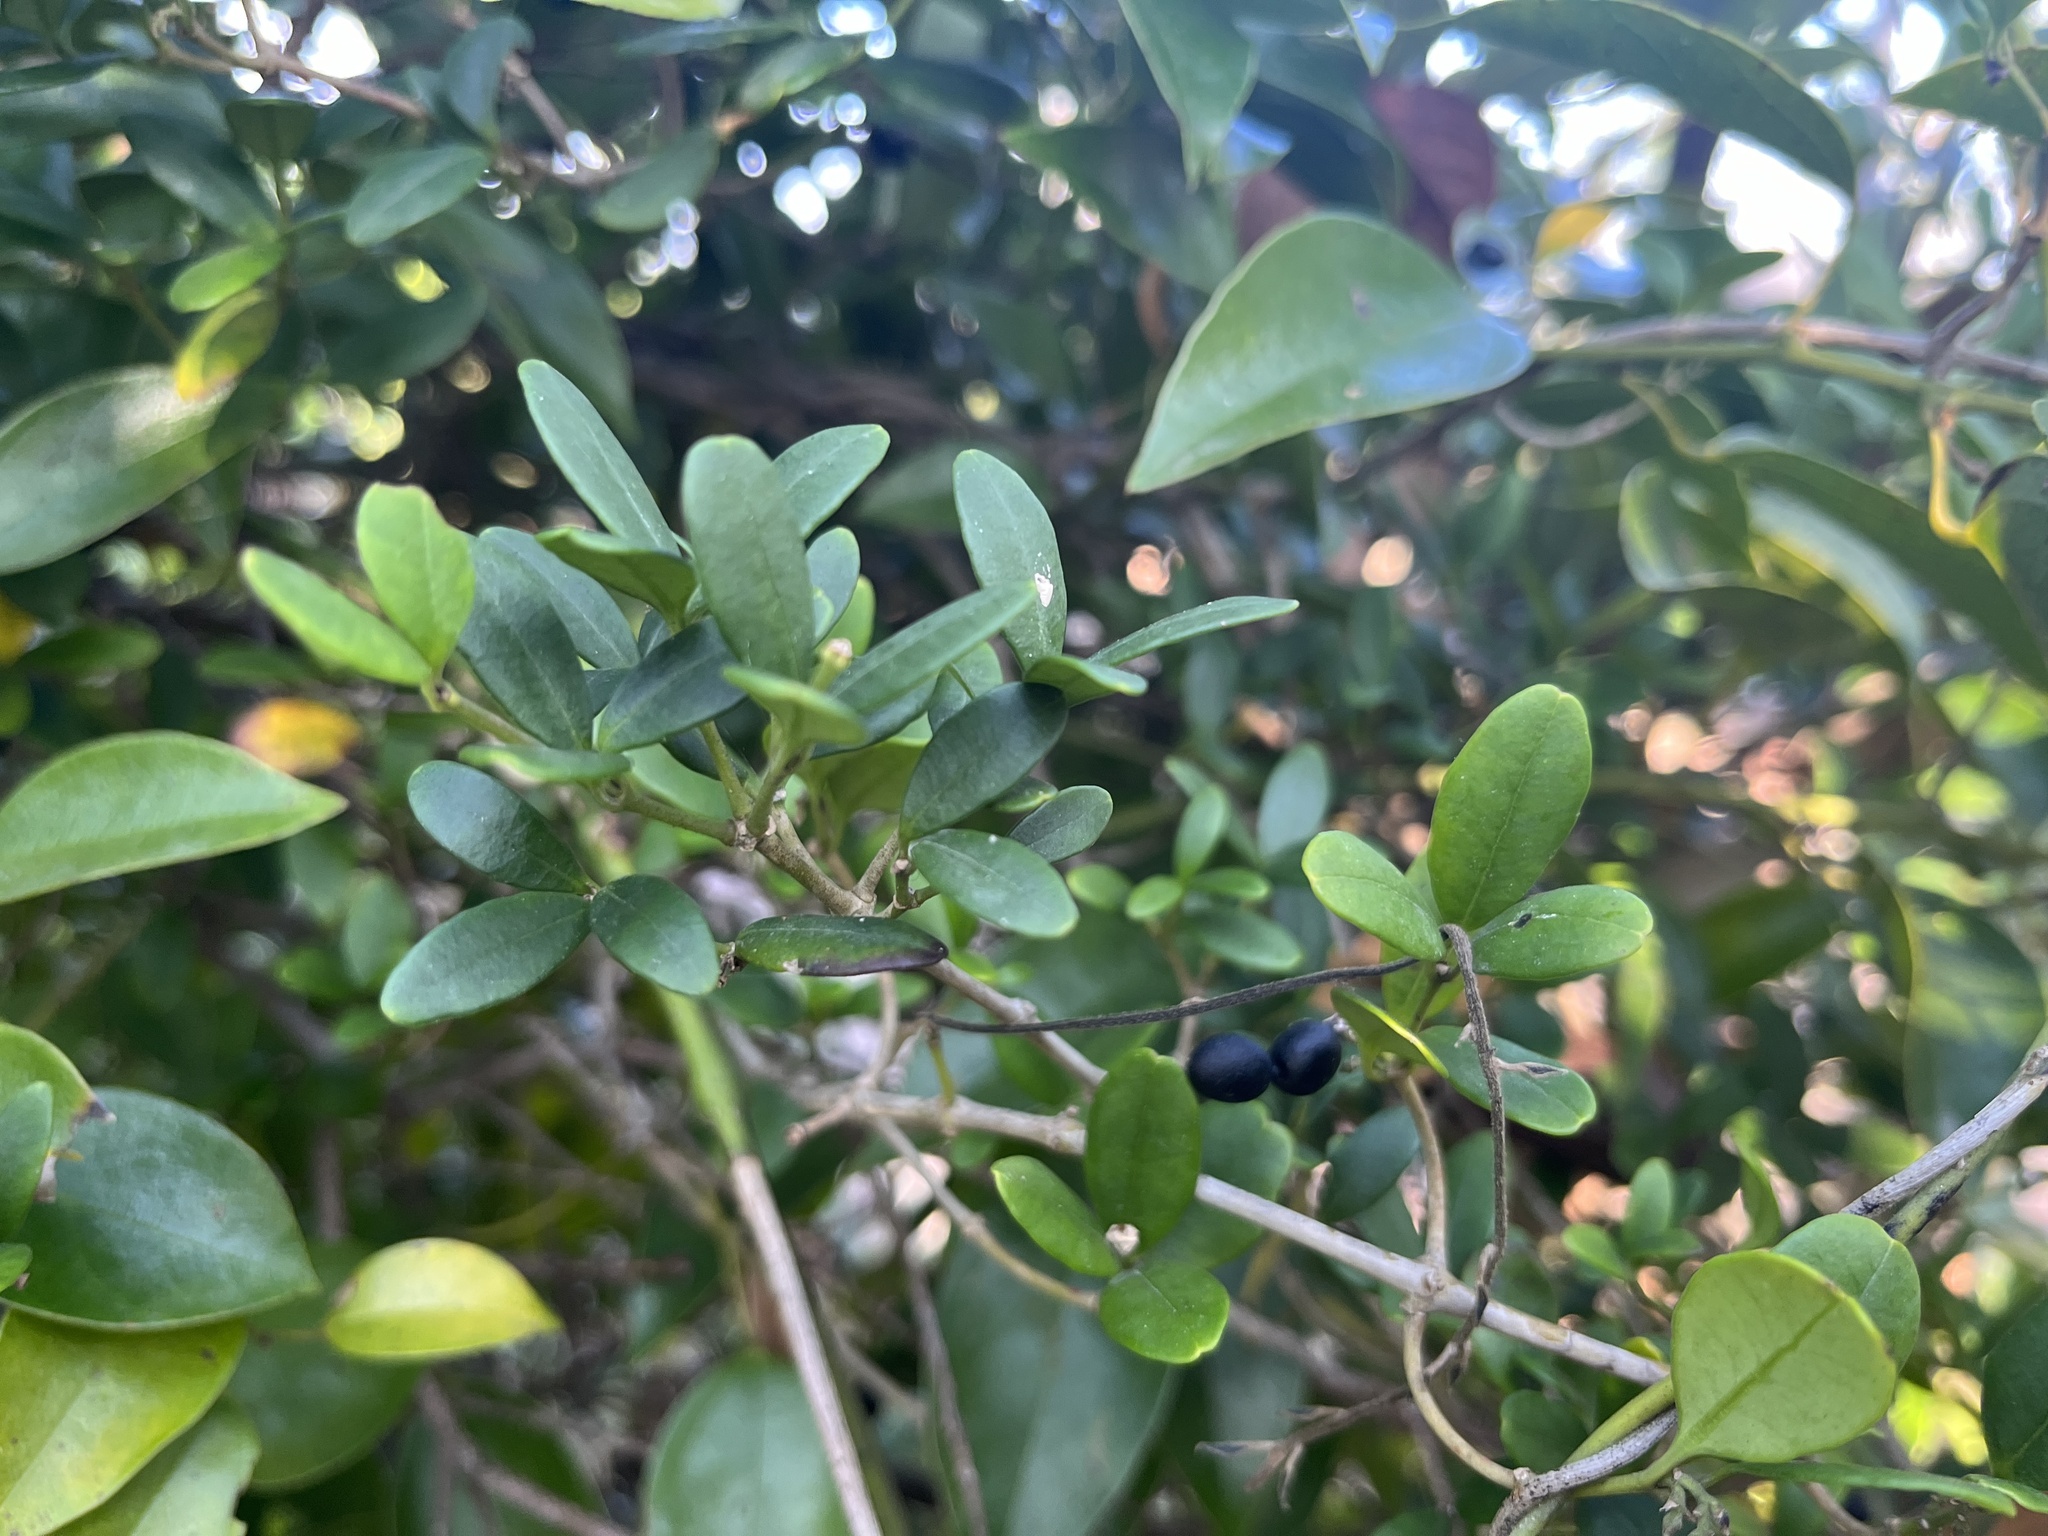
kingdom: Plantae
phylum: Tracheophyta
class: Magnoliopsida
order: Gentianales
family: Apocynaceae
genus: Alyxia
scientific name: Alyxia sinensis
